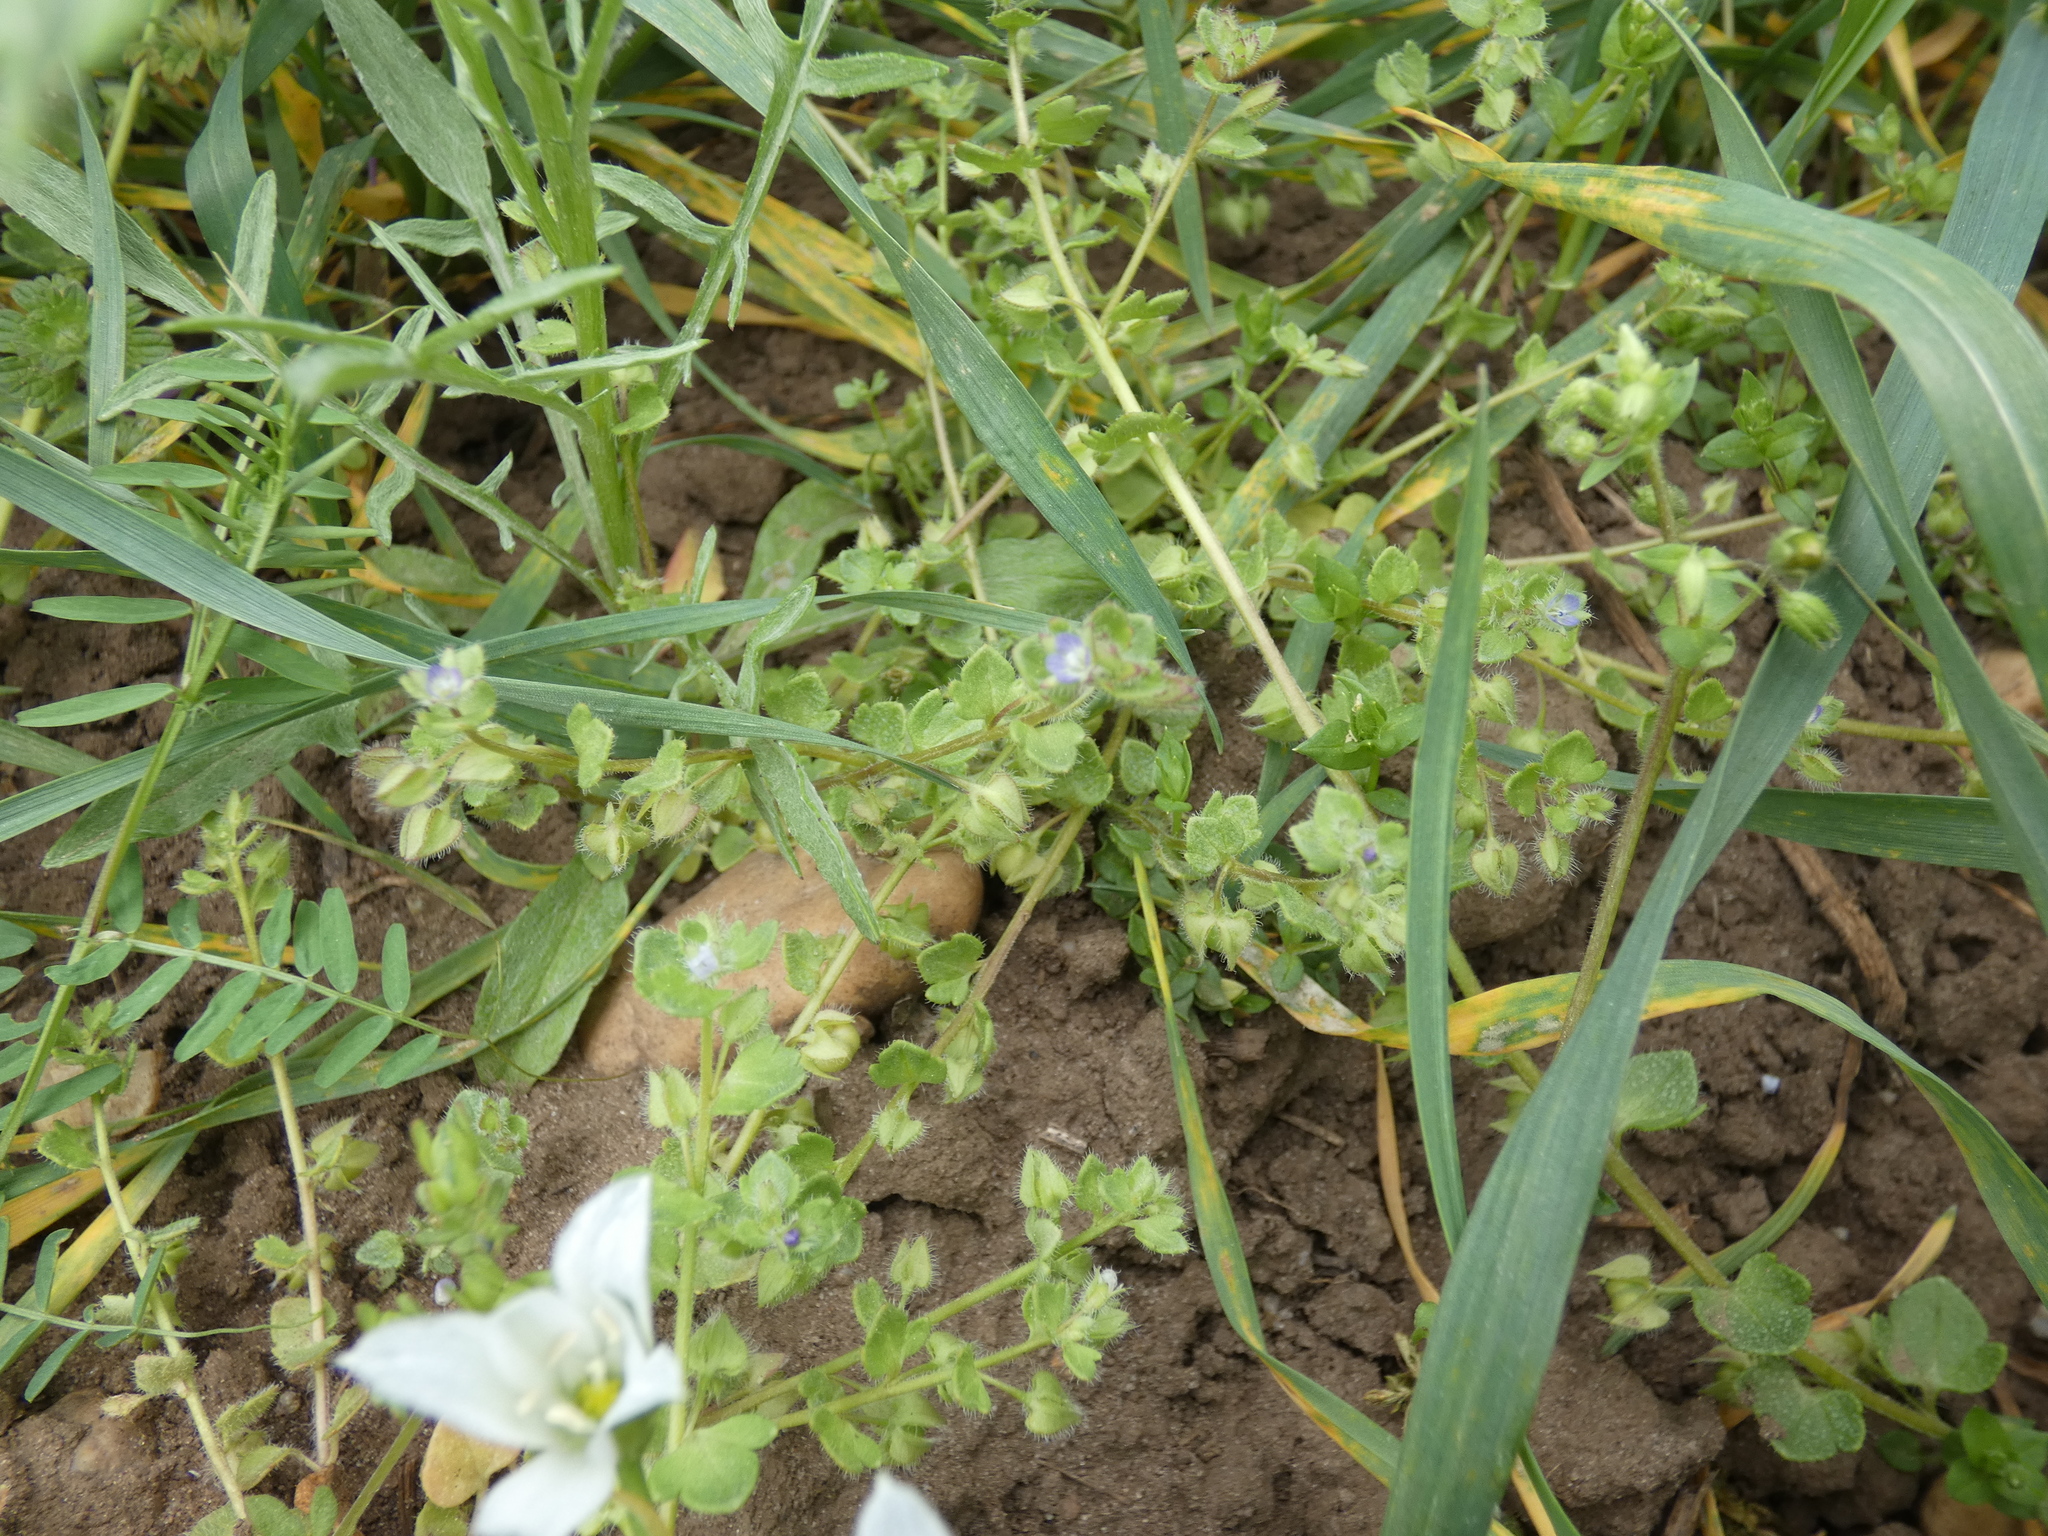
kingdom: Plantae
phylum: Tracheophyta
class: Magnoliopsida
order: Lamiales
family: Plantaginaceae
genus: Veronica
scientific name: Veronica hederifolia
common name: Ivy-leaved speedwell
